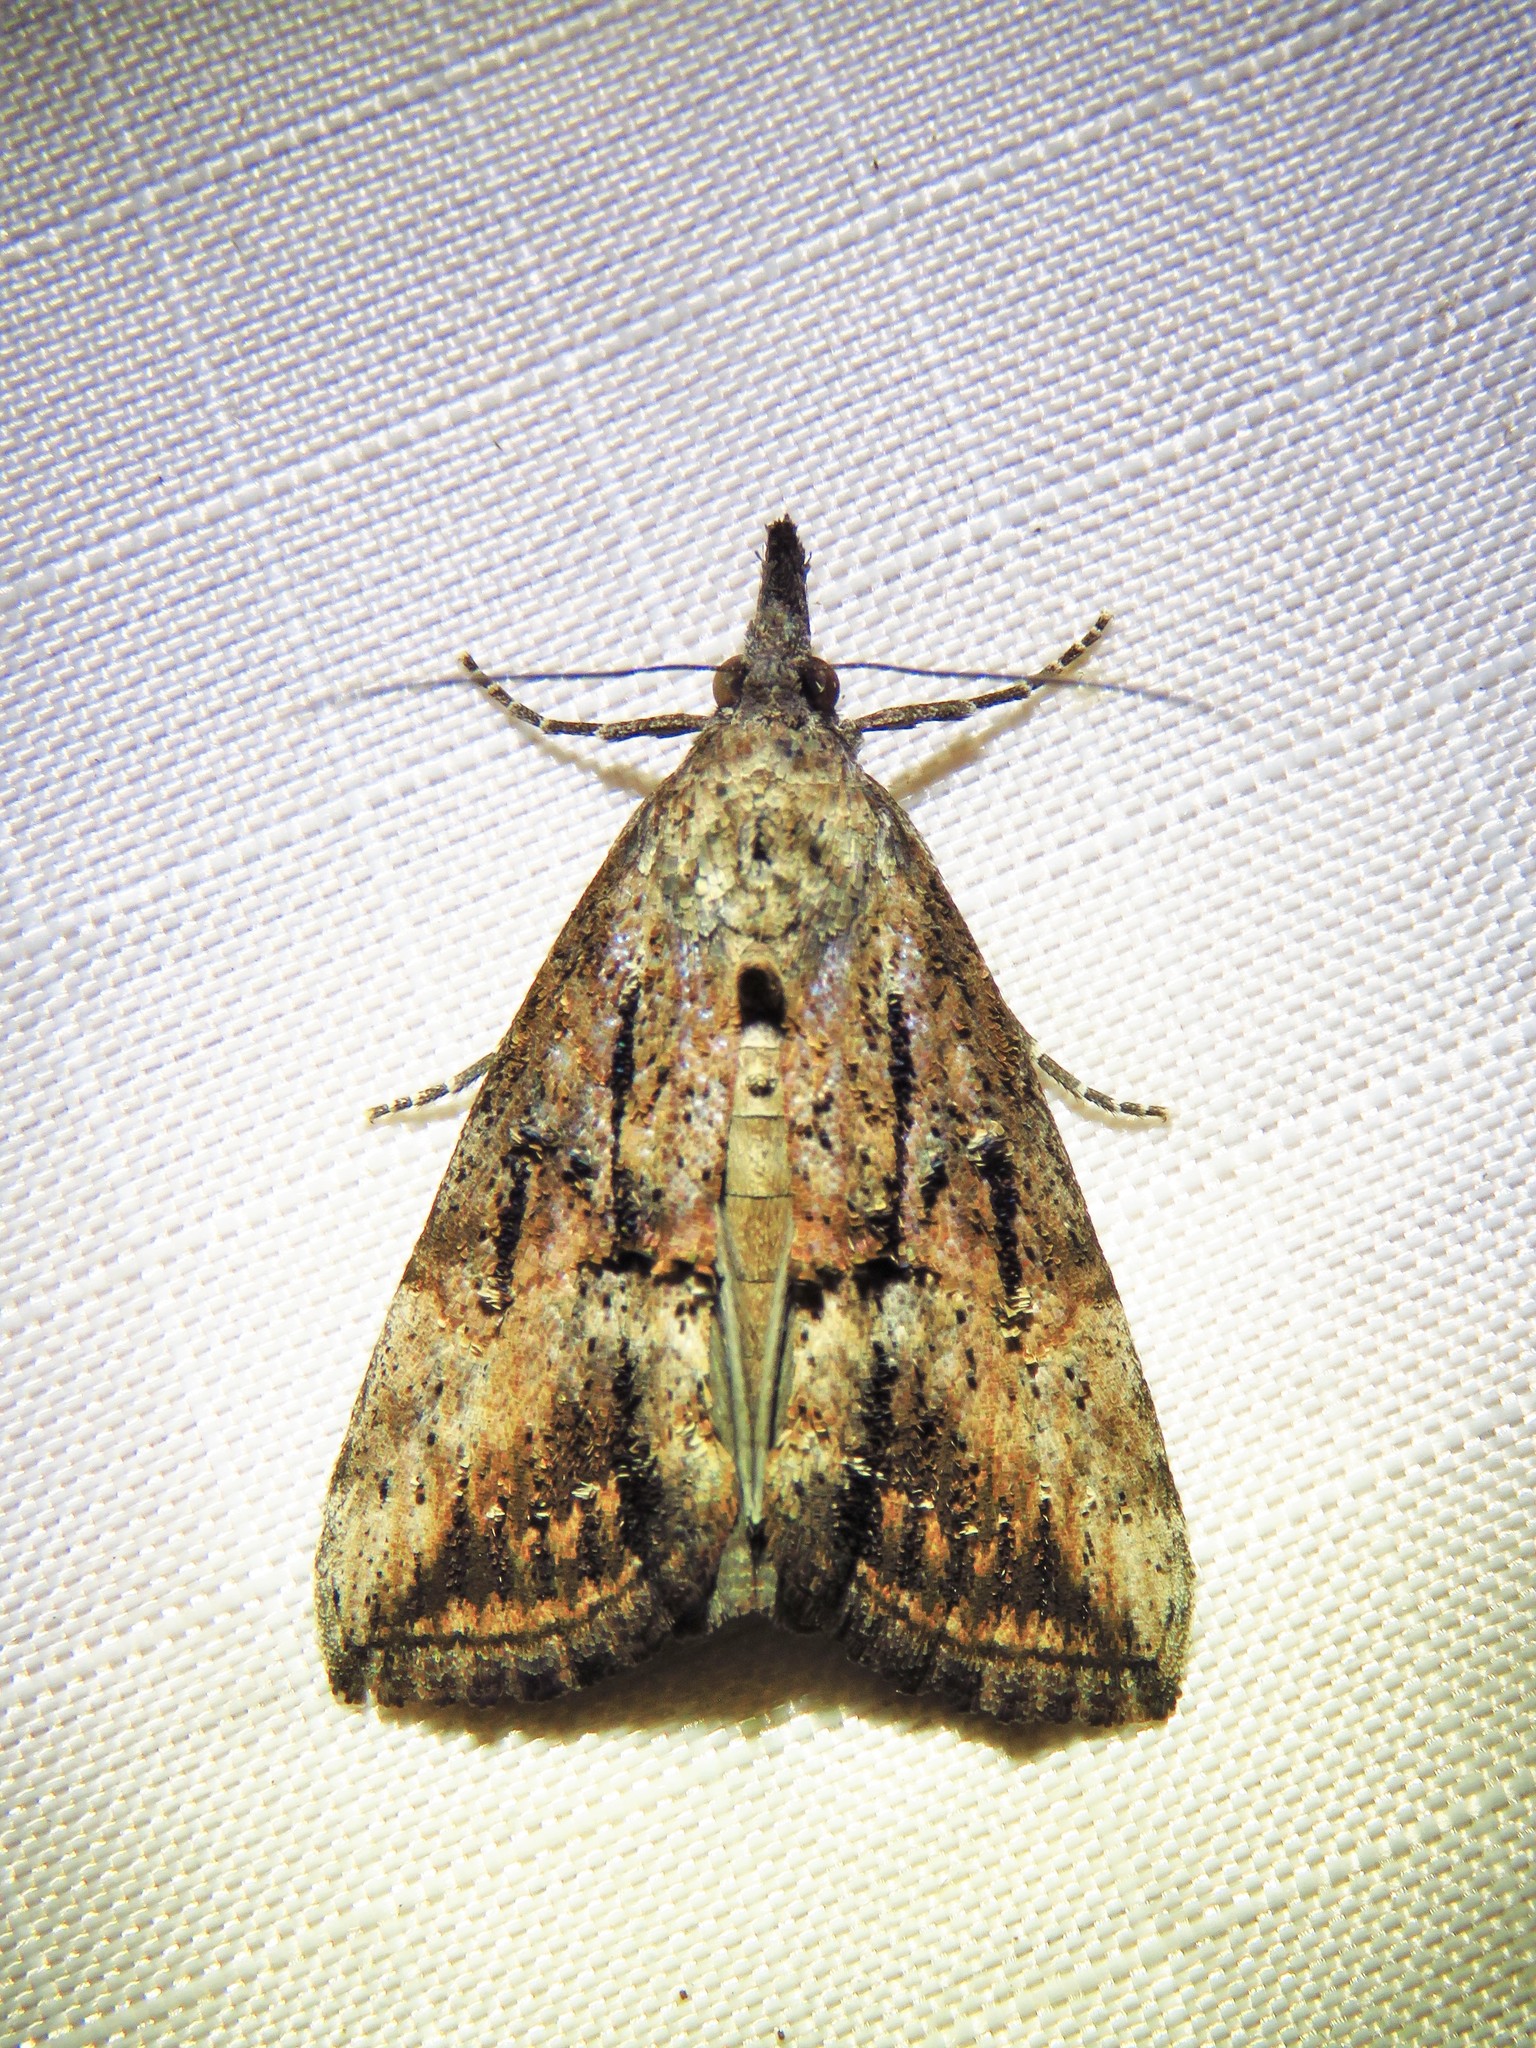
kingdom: Animalia
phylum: Arthropoda
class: Insecta
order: Lepidoptera
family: Erebidae
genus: Hypena
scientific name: Hypena scabra
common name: Green cloverworm
